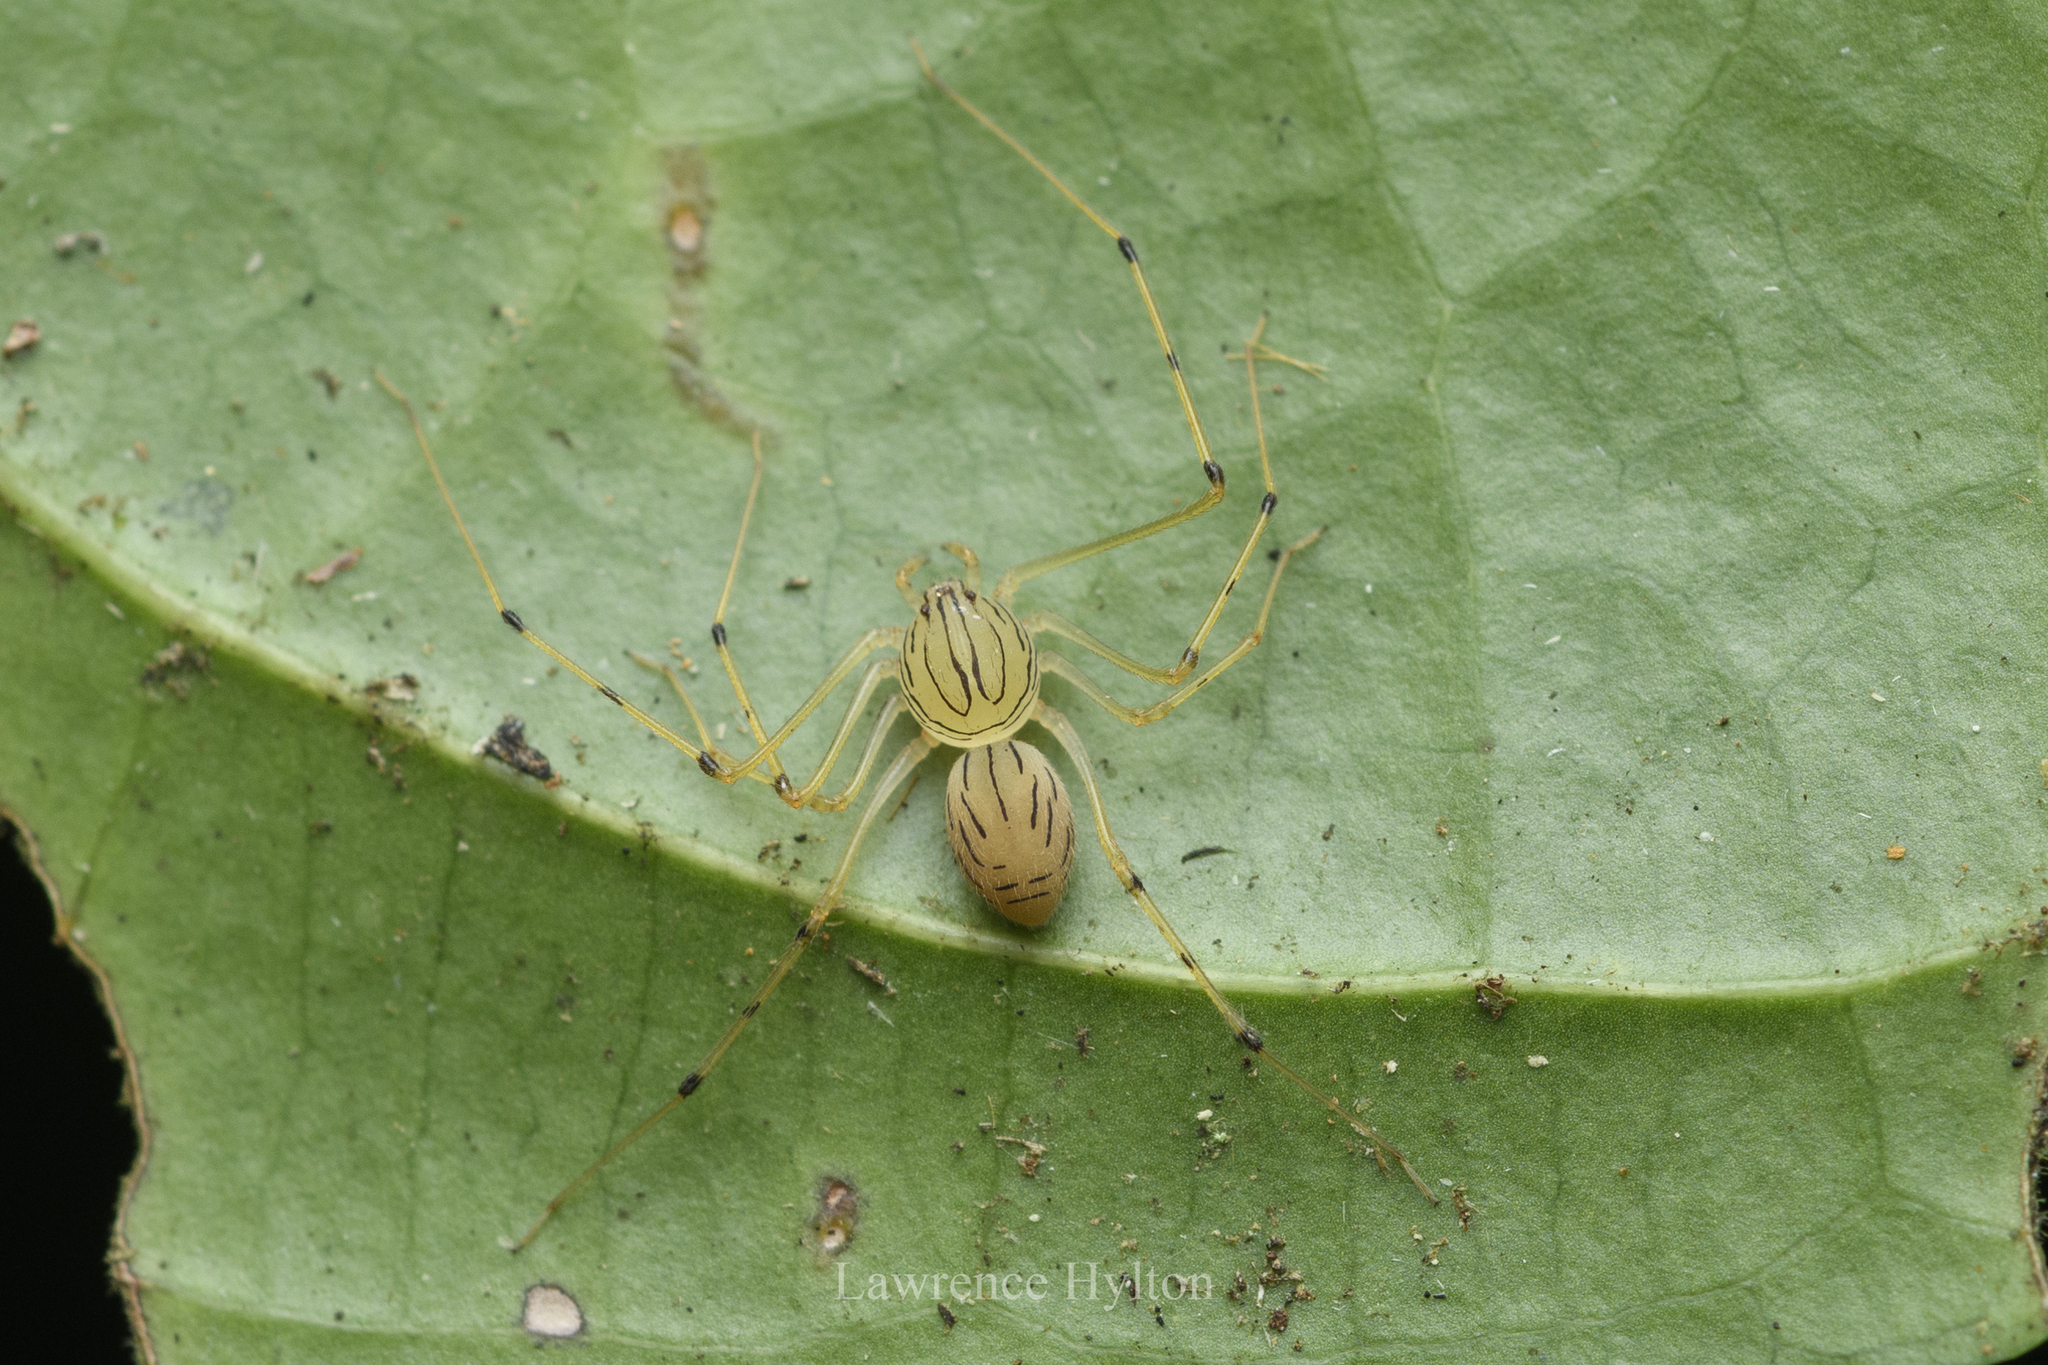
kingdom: Animalia
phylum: Arthropoda
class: Arachnida
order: Araneae
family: Scytodidae
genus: Scytodes
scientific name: Scytodes pallida
